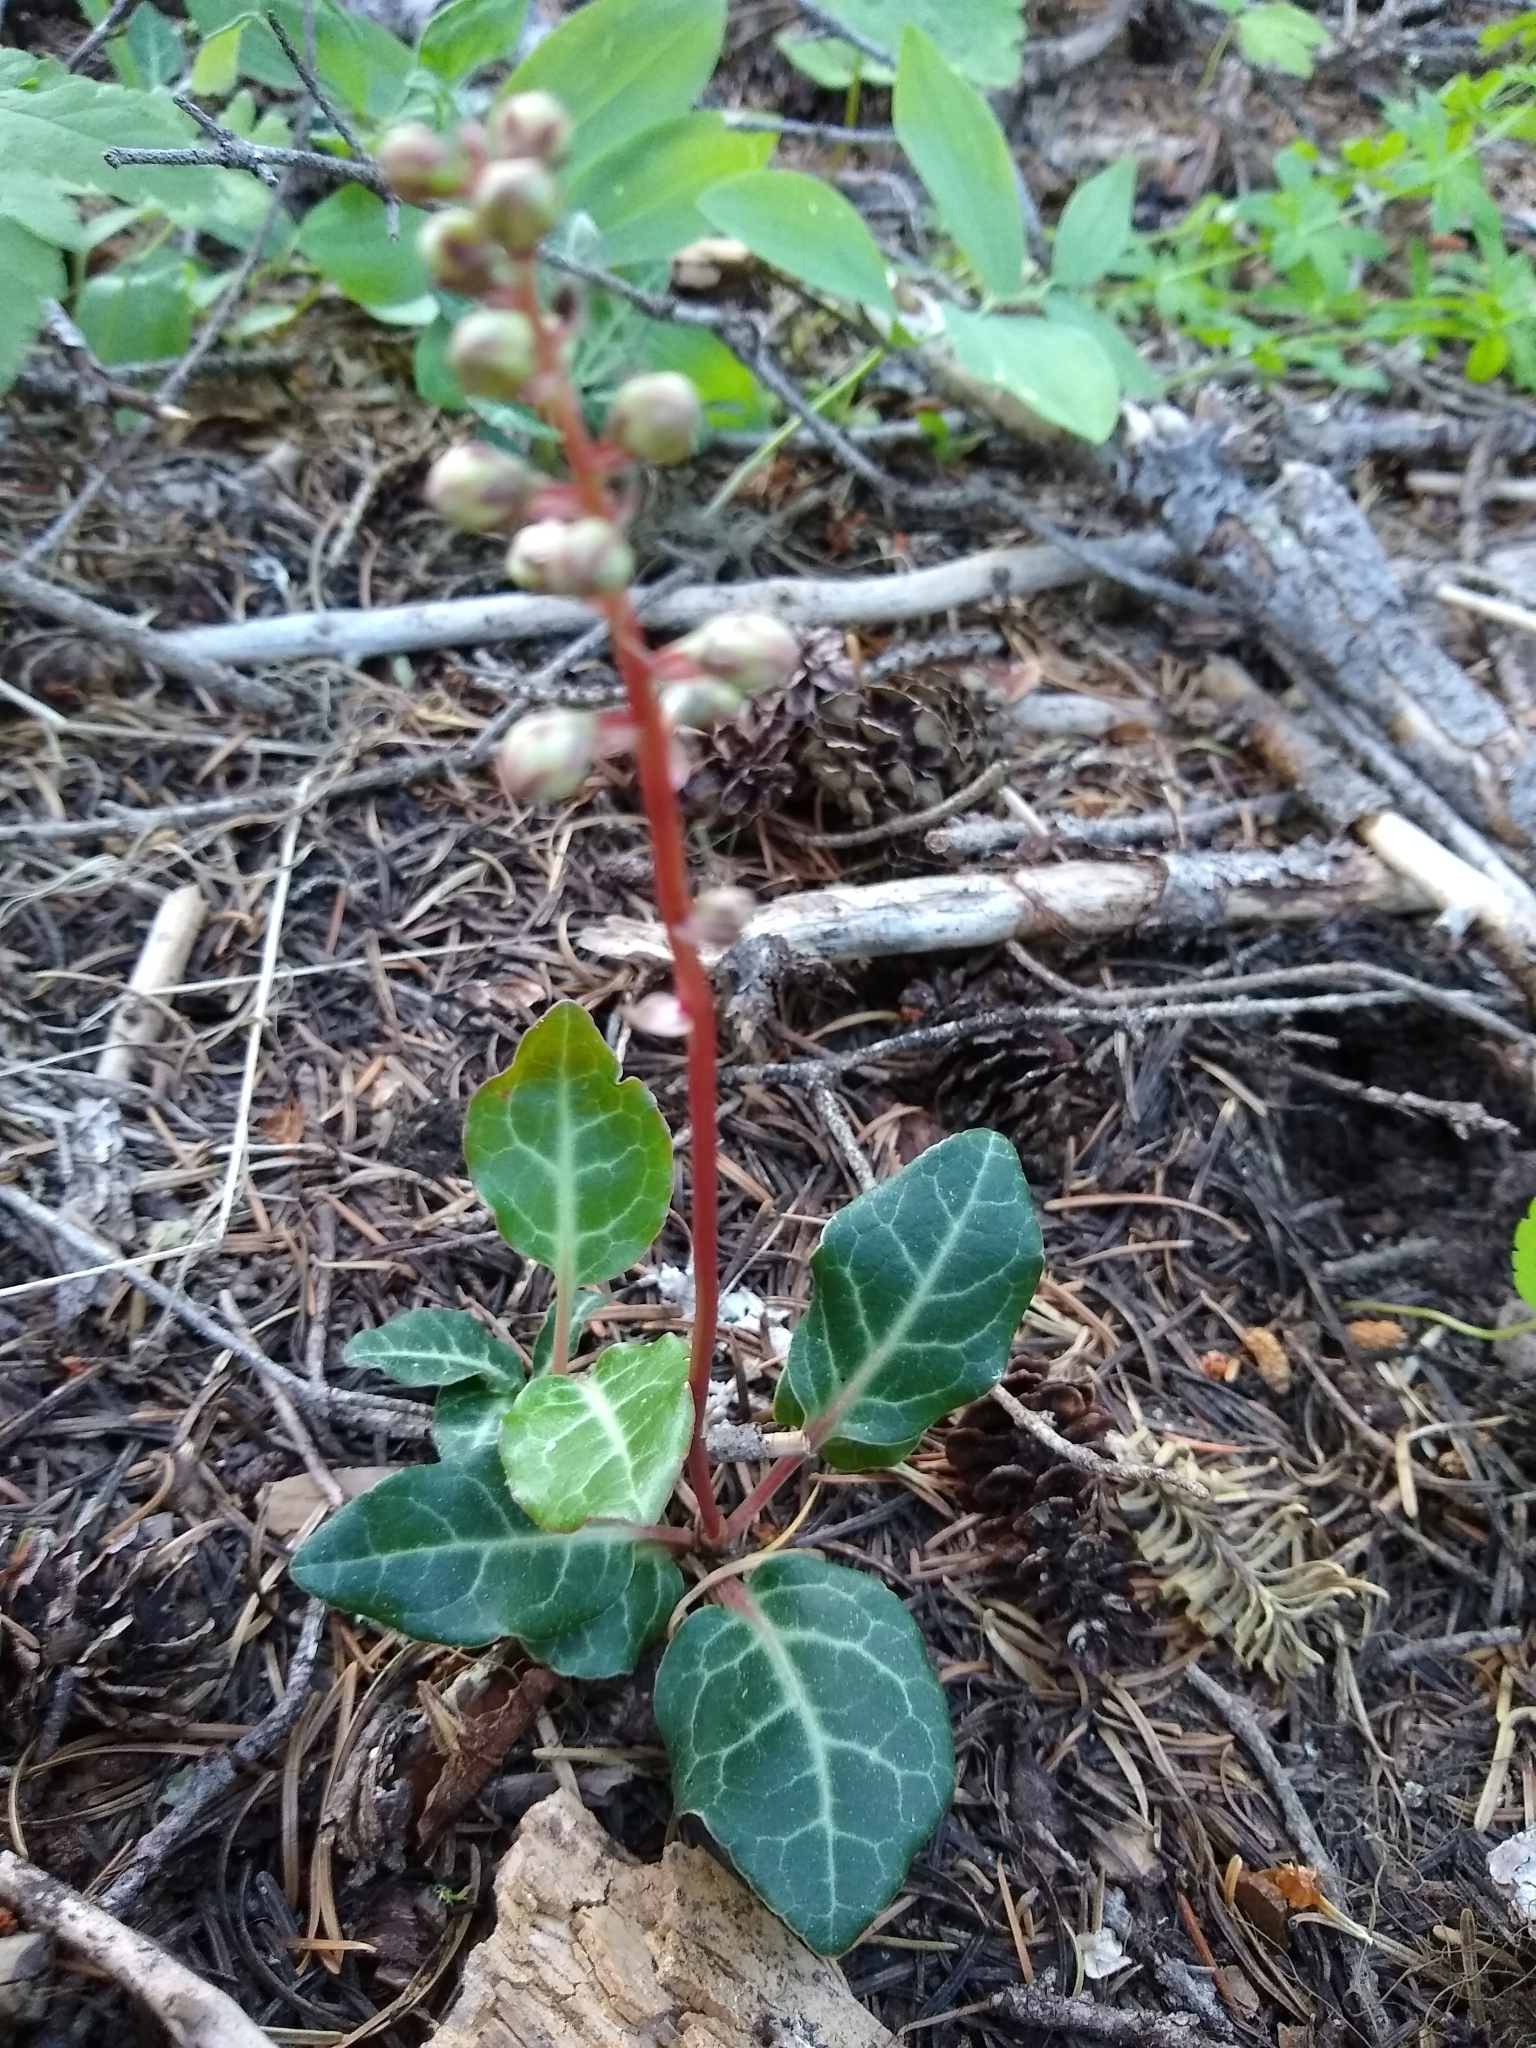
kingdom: Plantae
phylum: Tracheophyta
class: Magnoliopsida
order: Ericales
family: Ericaceae
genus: Pyrola
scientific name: Pyrola picta
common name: White-vein wintergreen
